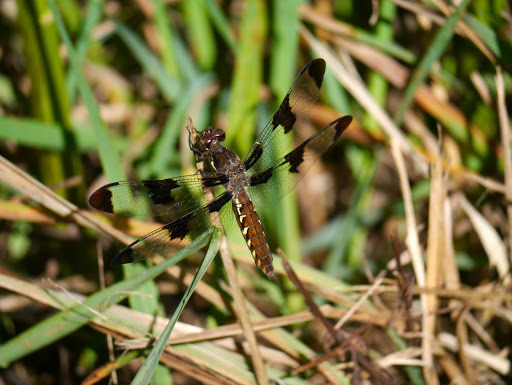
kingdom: Animalia
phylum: Arthropoda
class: Insecta
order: Odonata
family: Libellulidae
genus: Plathemis
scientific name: Plathemis lydia
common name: Common whitetail
